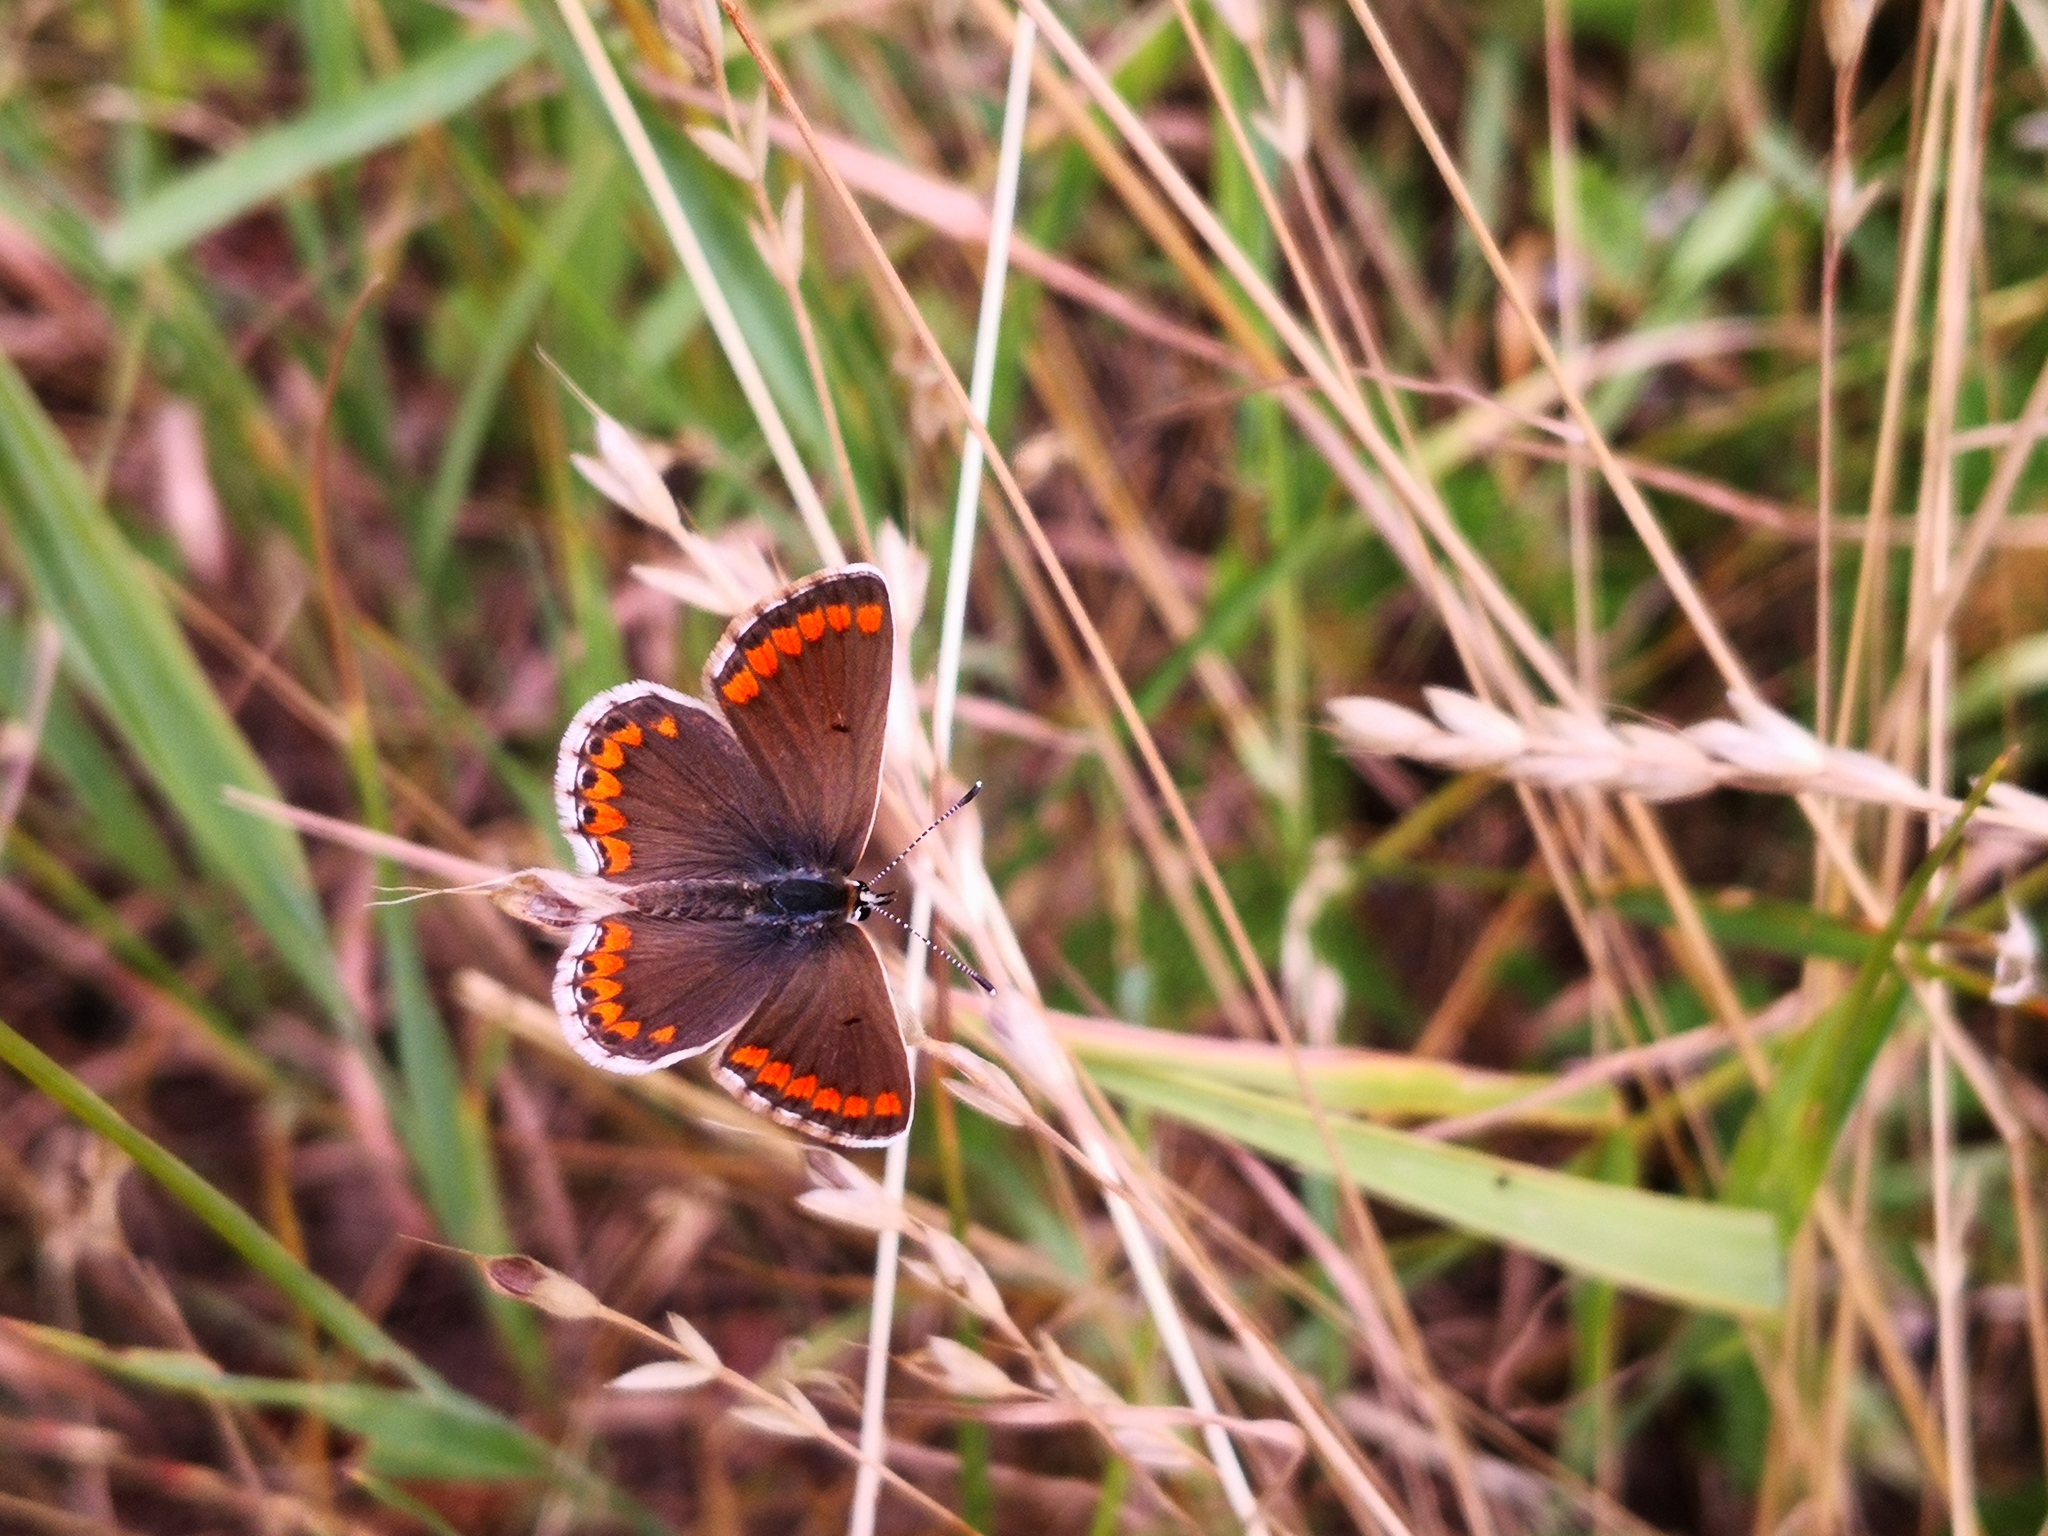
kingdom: Animalia
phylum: Arthropoda
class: Insecta
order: Lepidoptera
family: Lycaenidae
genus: Aricia
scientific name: Aricia agestis
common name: Brown argus
